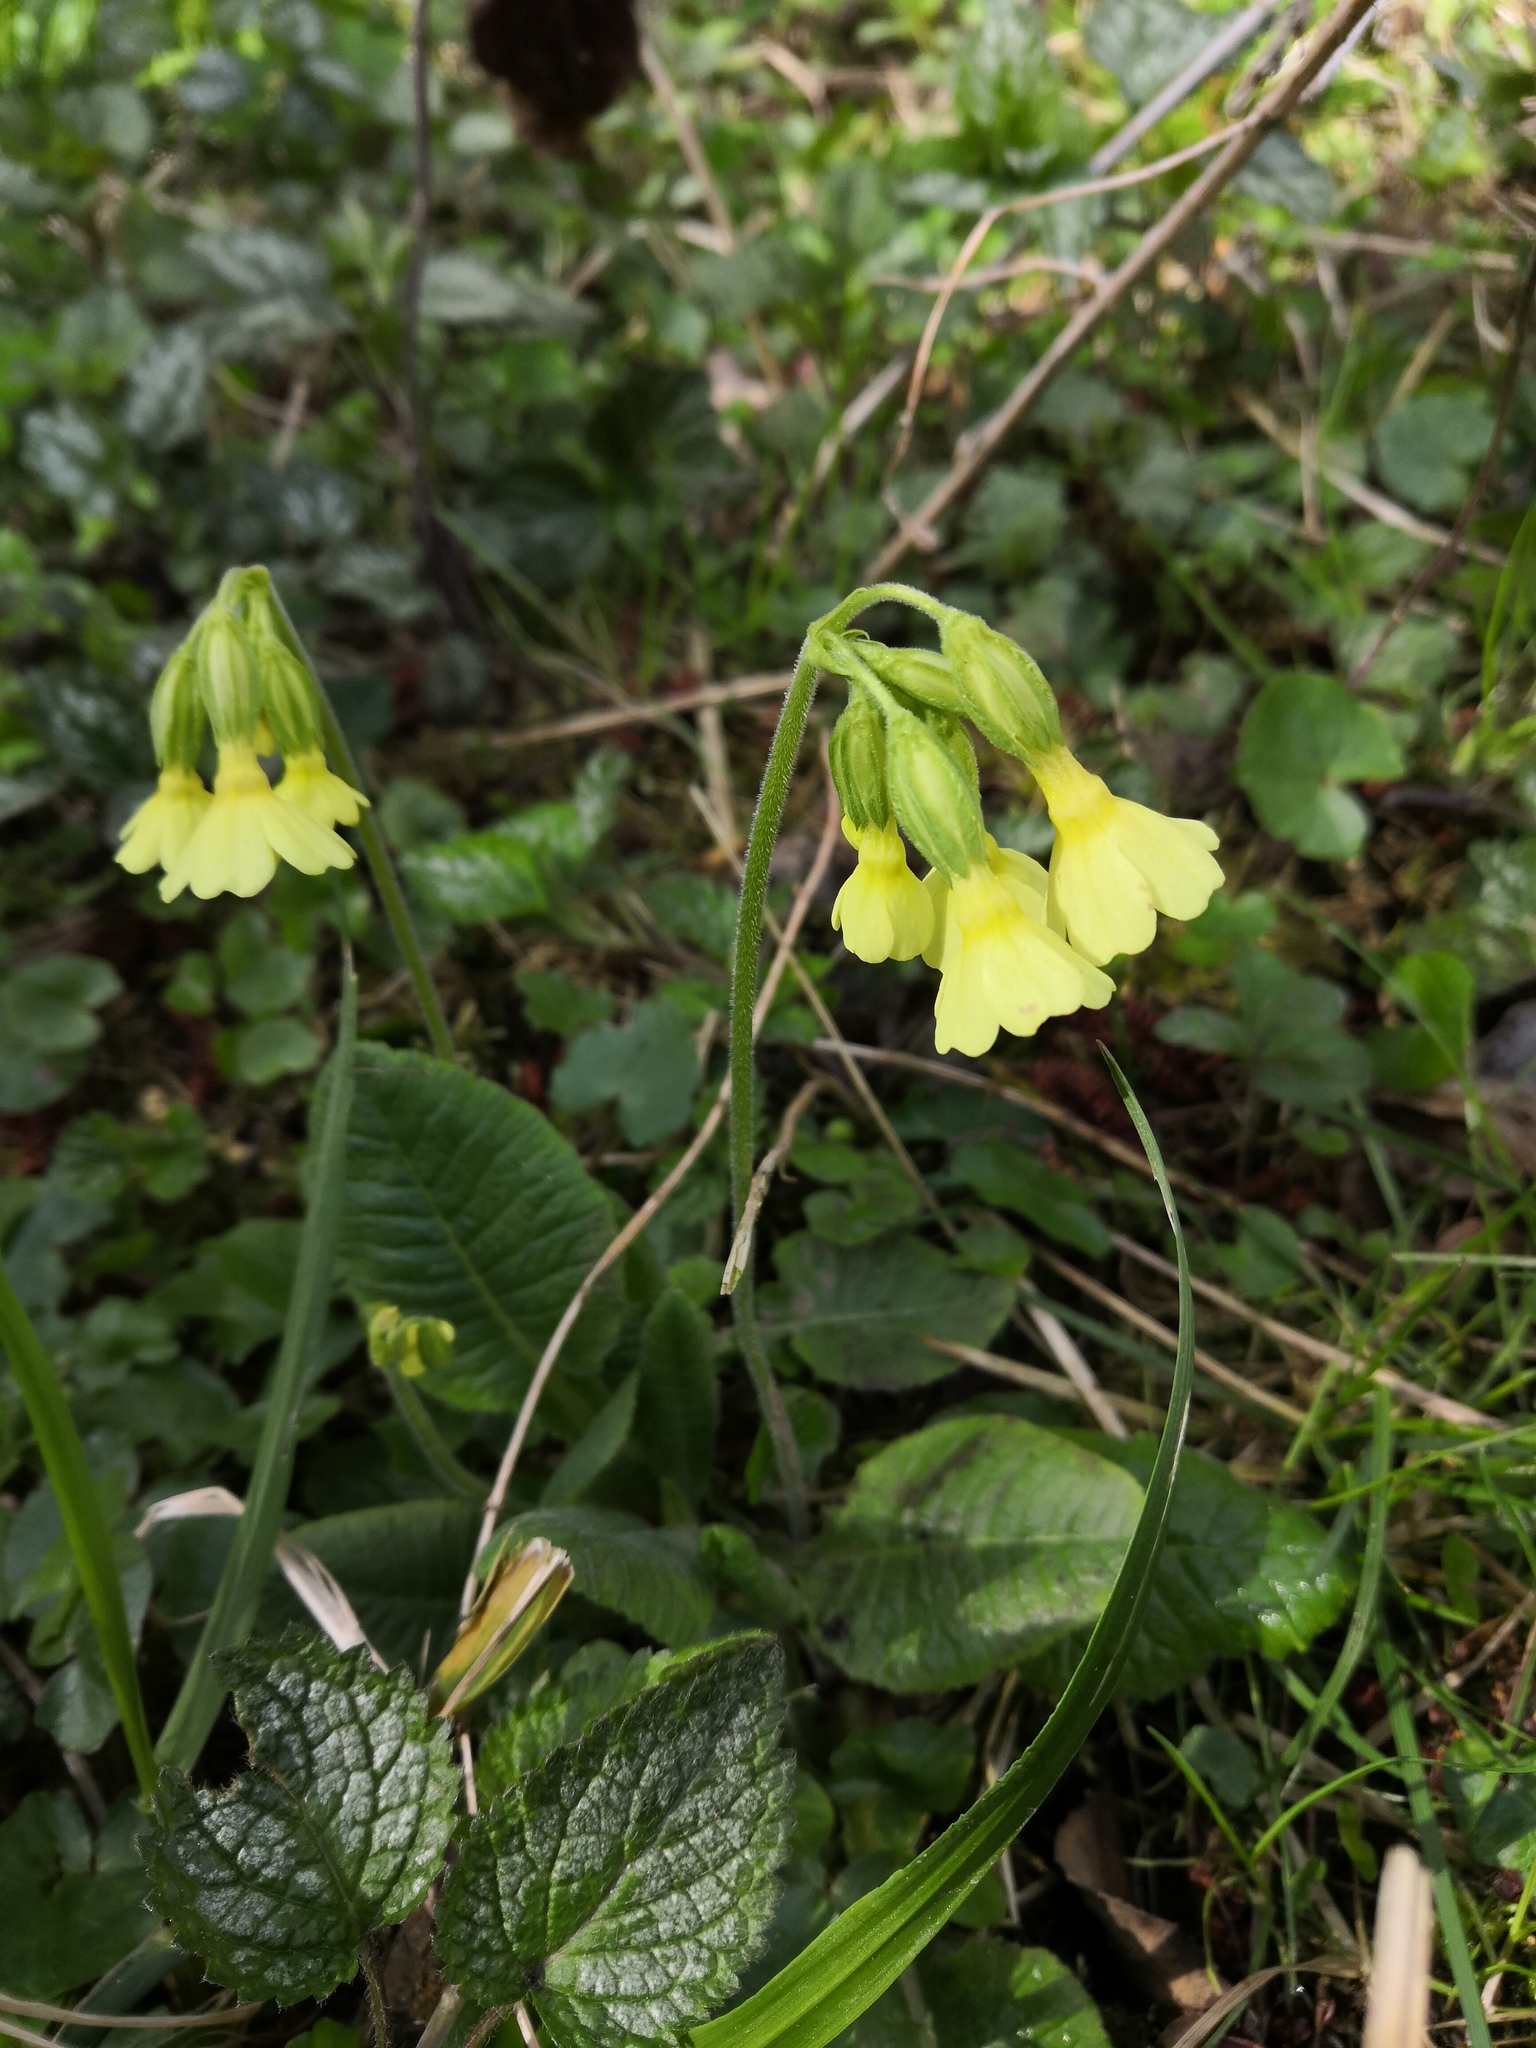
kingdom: Plantae
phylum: Tracheophyta
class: Magnoliopsida
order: Ericales
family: Primulaceae
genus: Primula
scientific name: Primula elatior
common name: Oxlip
